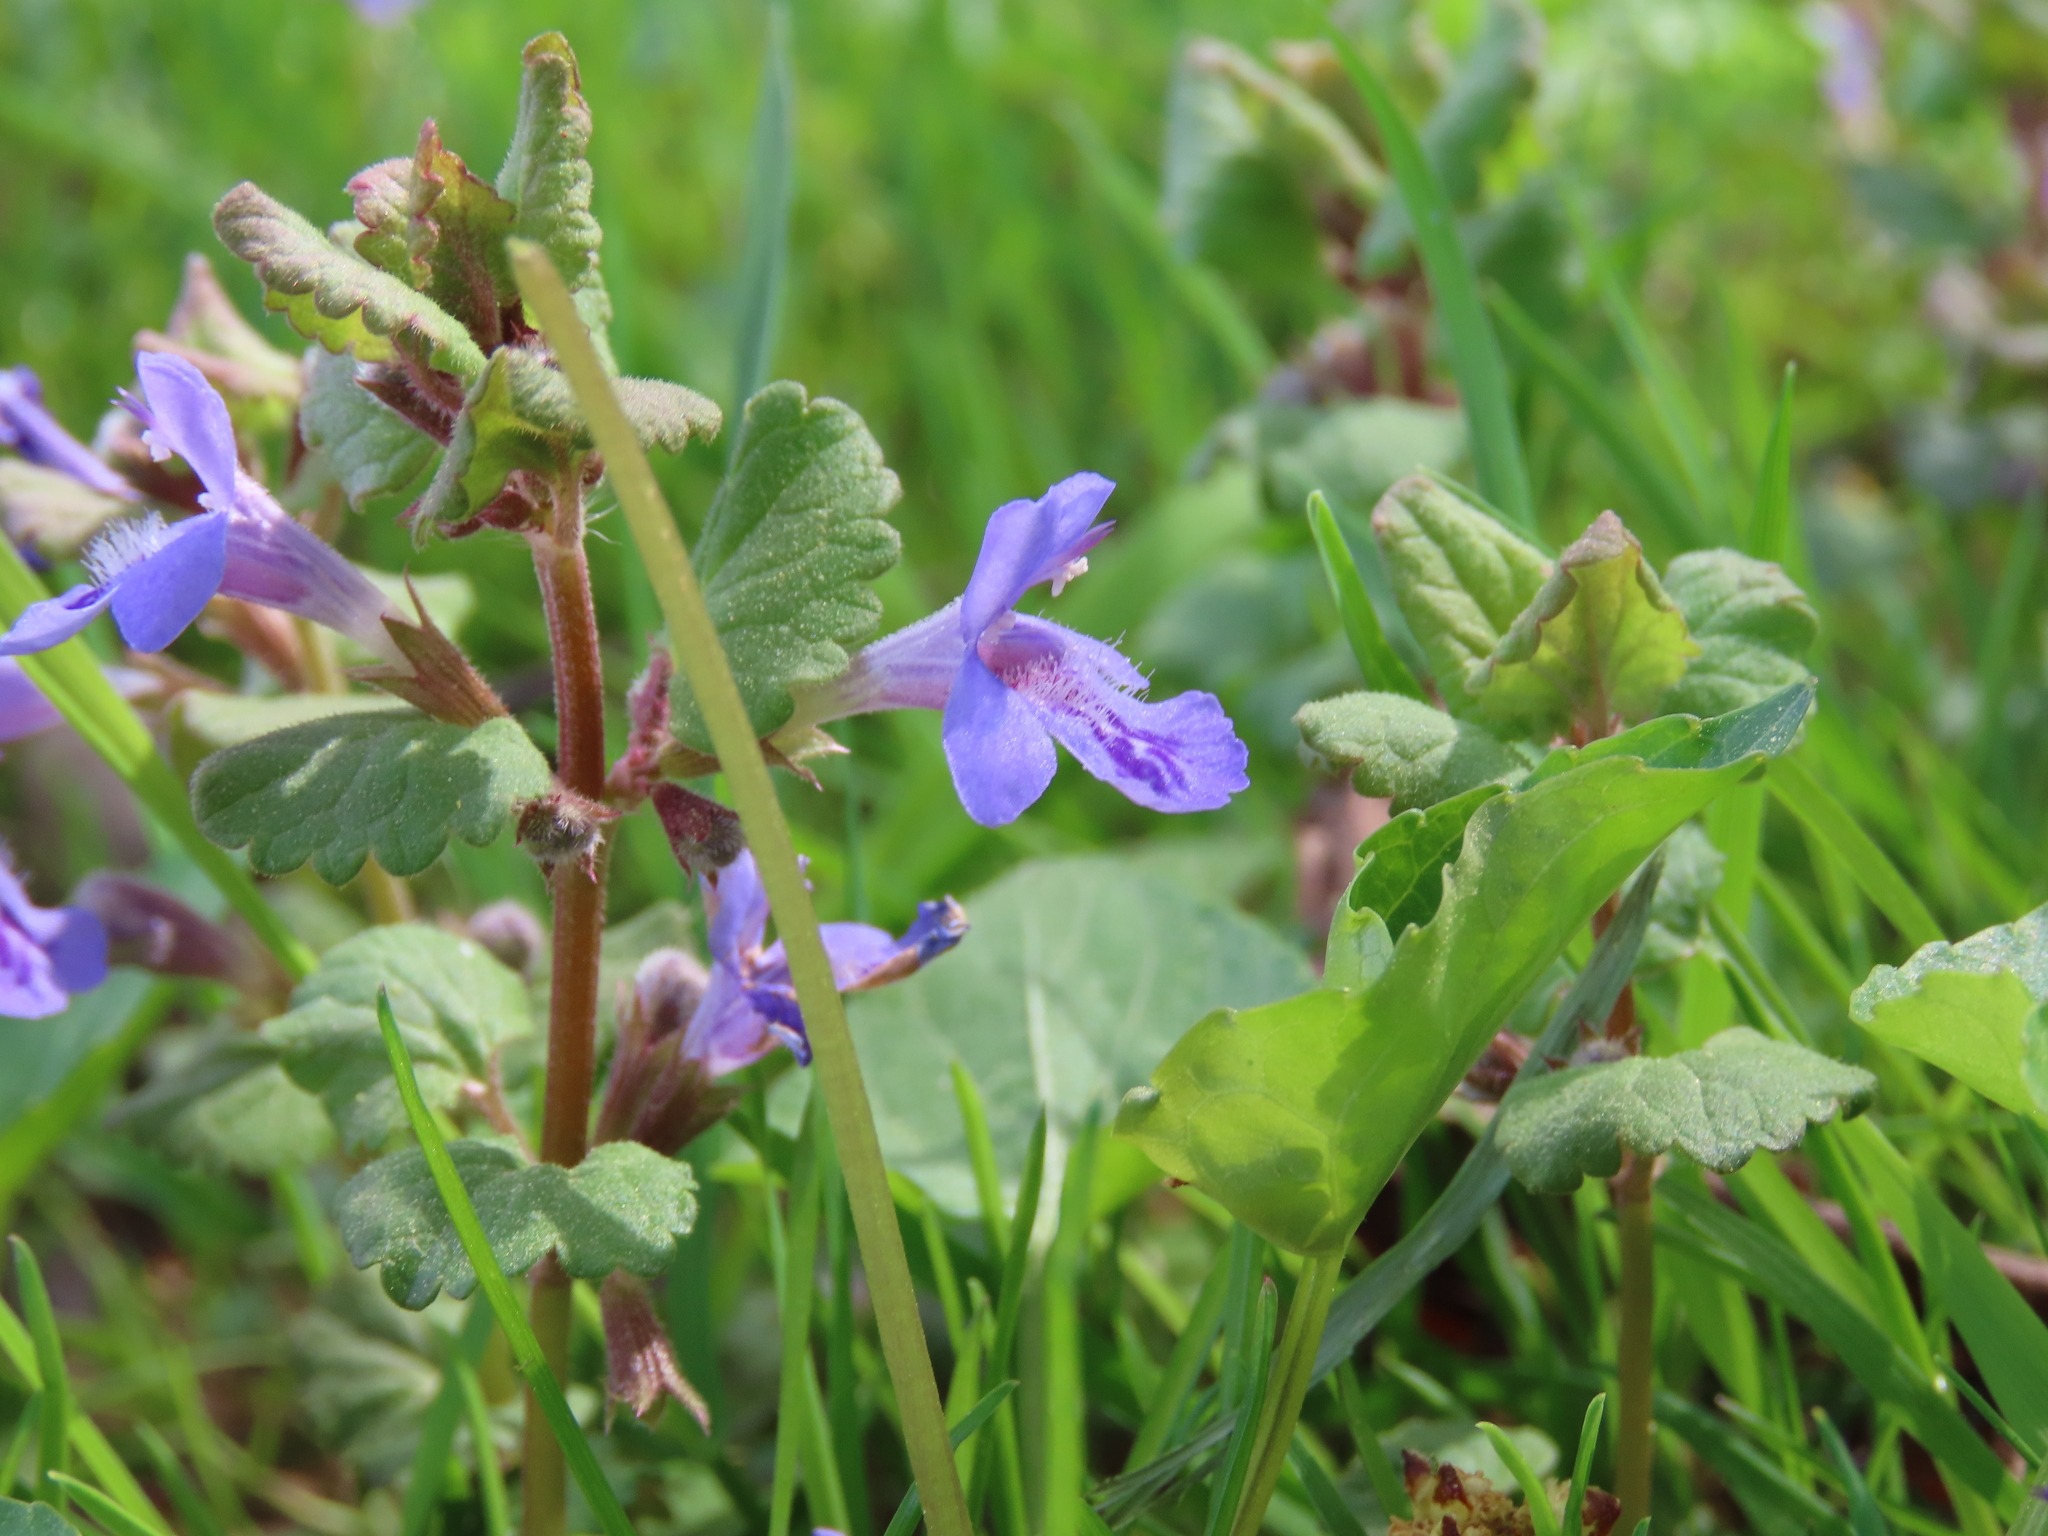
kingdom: Plantae
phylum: Tracheophyta
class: Magnoliopsida
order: Lamiales
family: Lamiaceae
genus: Glechoma
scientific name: Glechoma hederacea
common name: Ground ivy
